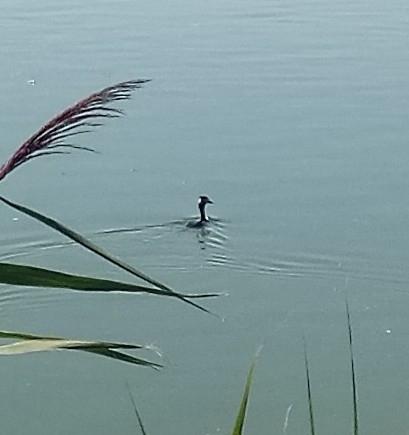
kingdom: Animalia
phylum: Chordata
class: Aves
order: Podicipediformes
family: Podicipedidae
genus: Podiceps
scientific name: Podiceps cristatus
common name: Great crested grebe
